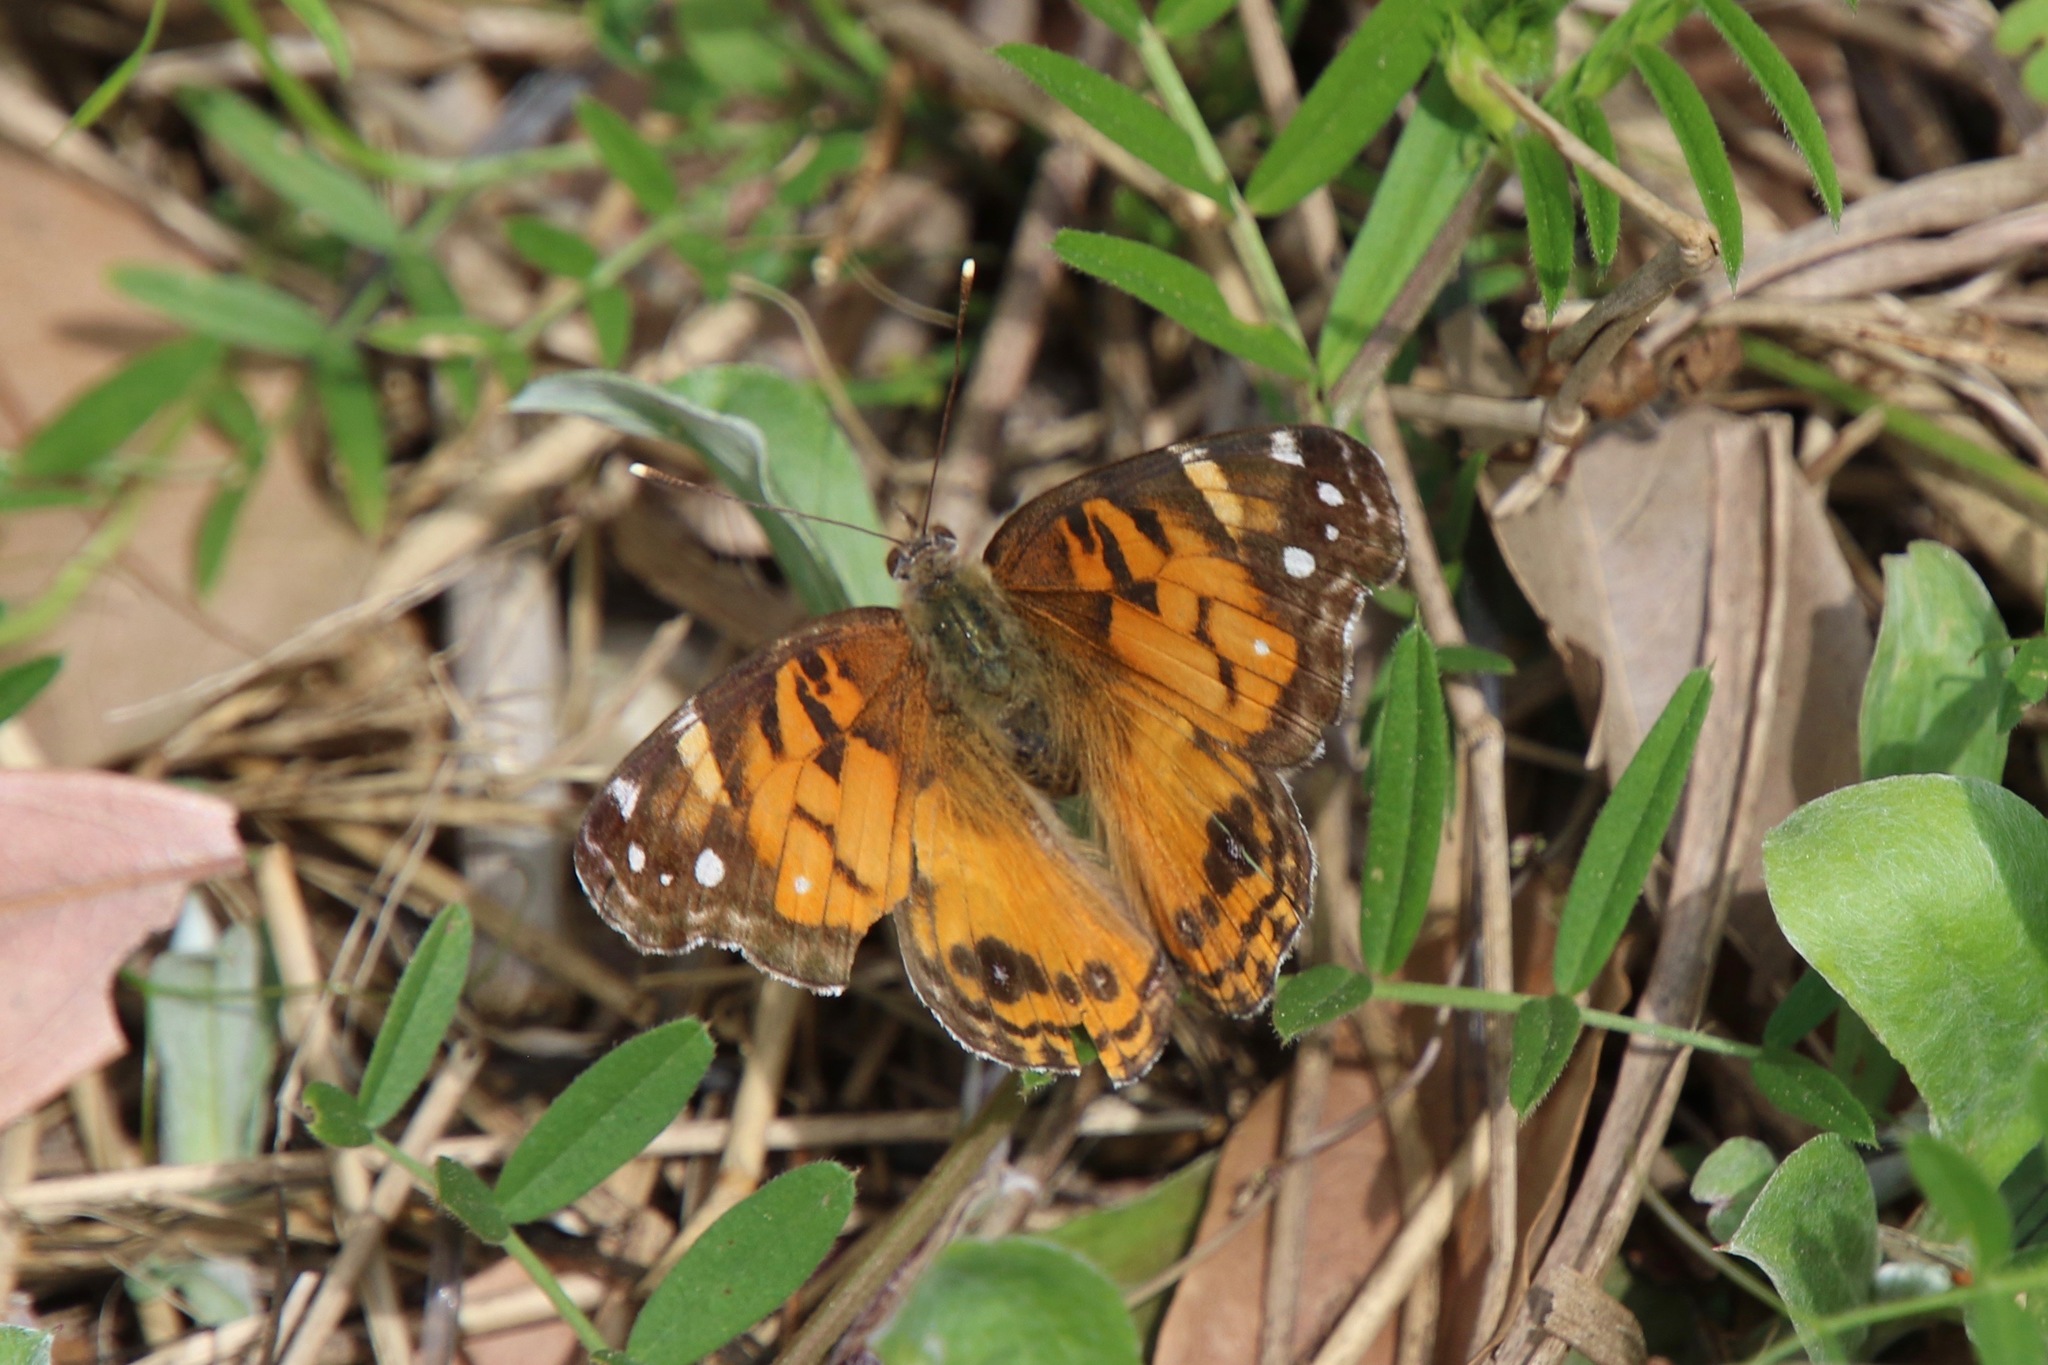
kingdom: Animalia
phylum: Arthropoda
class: Insecta
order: Lepidoptera
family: Nymphalidae
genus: Vanessa
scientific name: Vanessa virginiensis
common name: American lady
